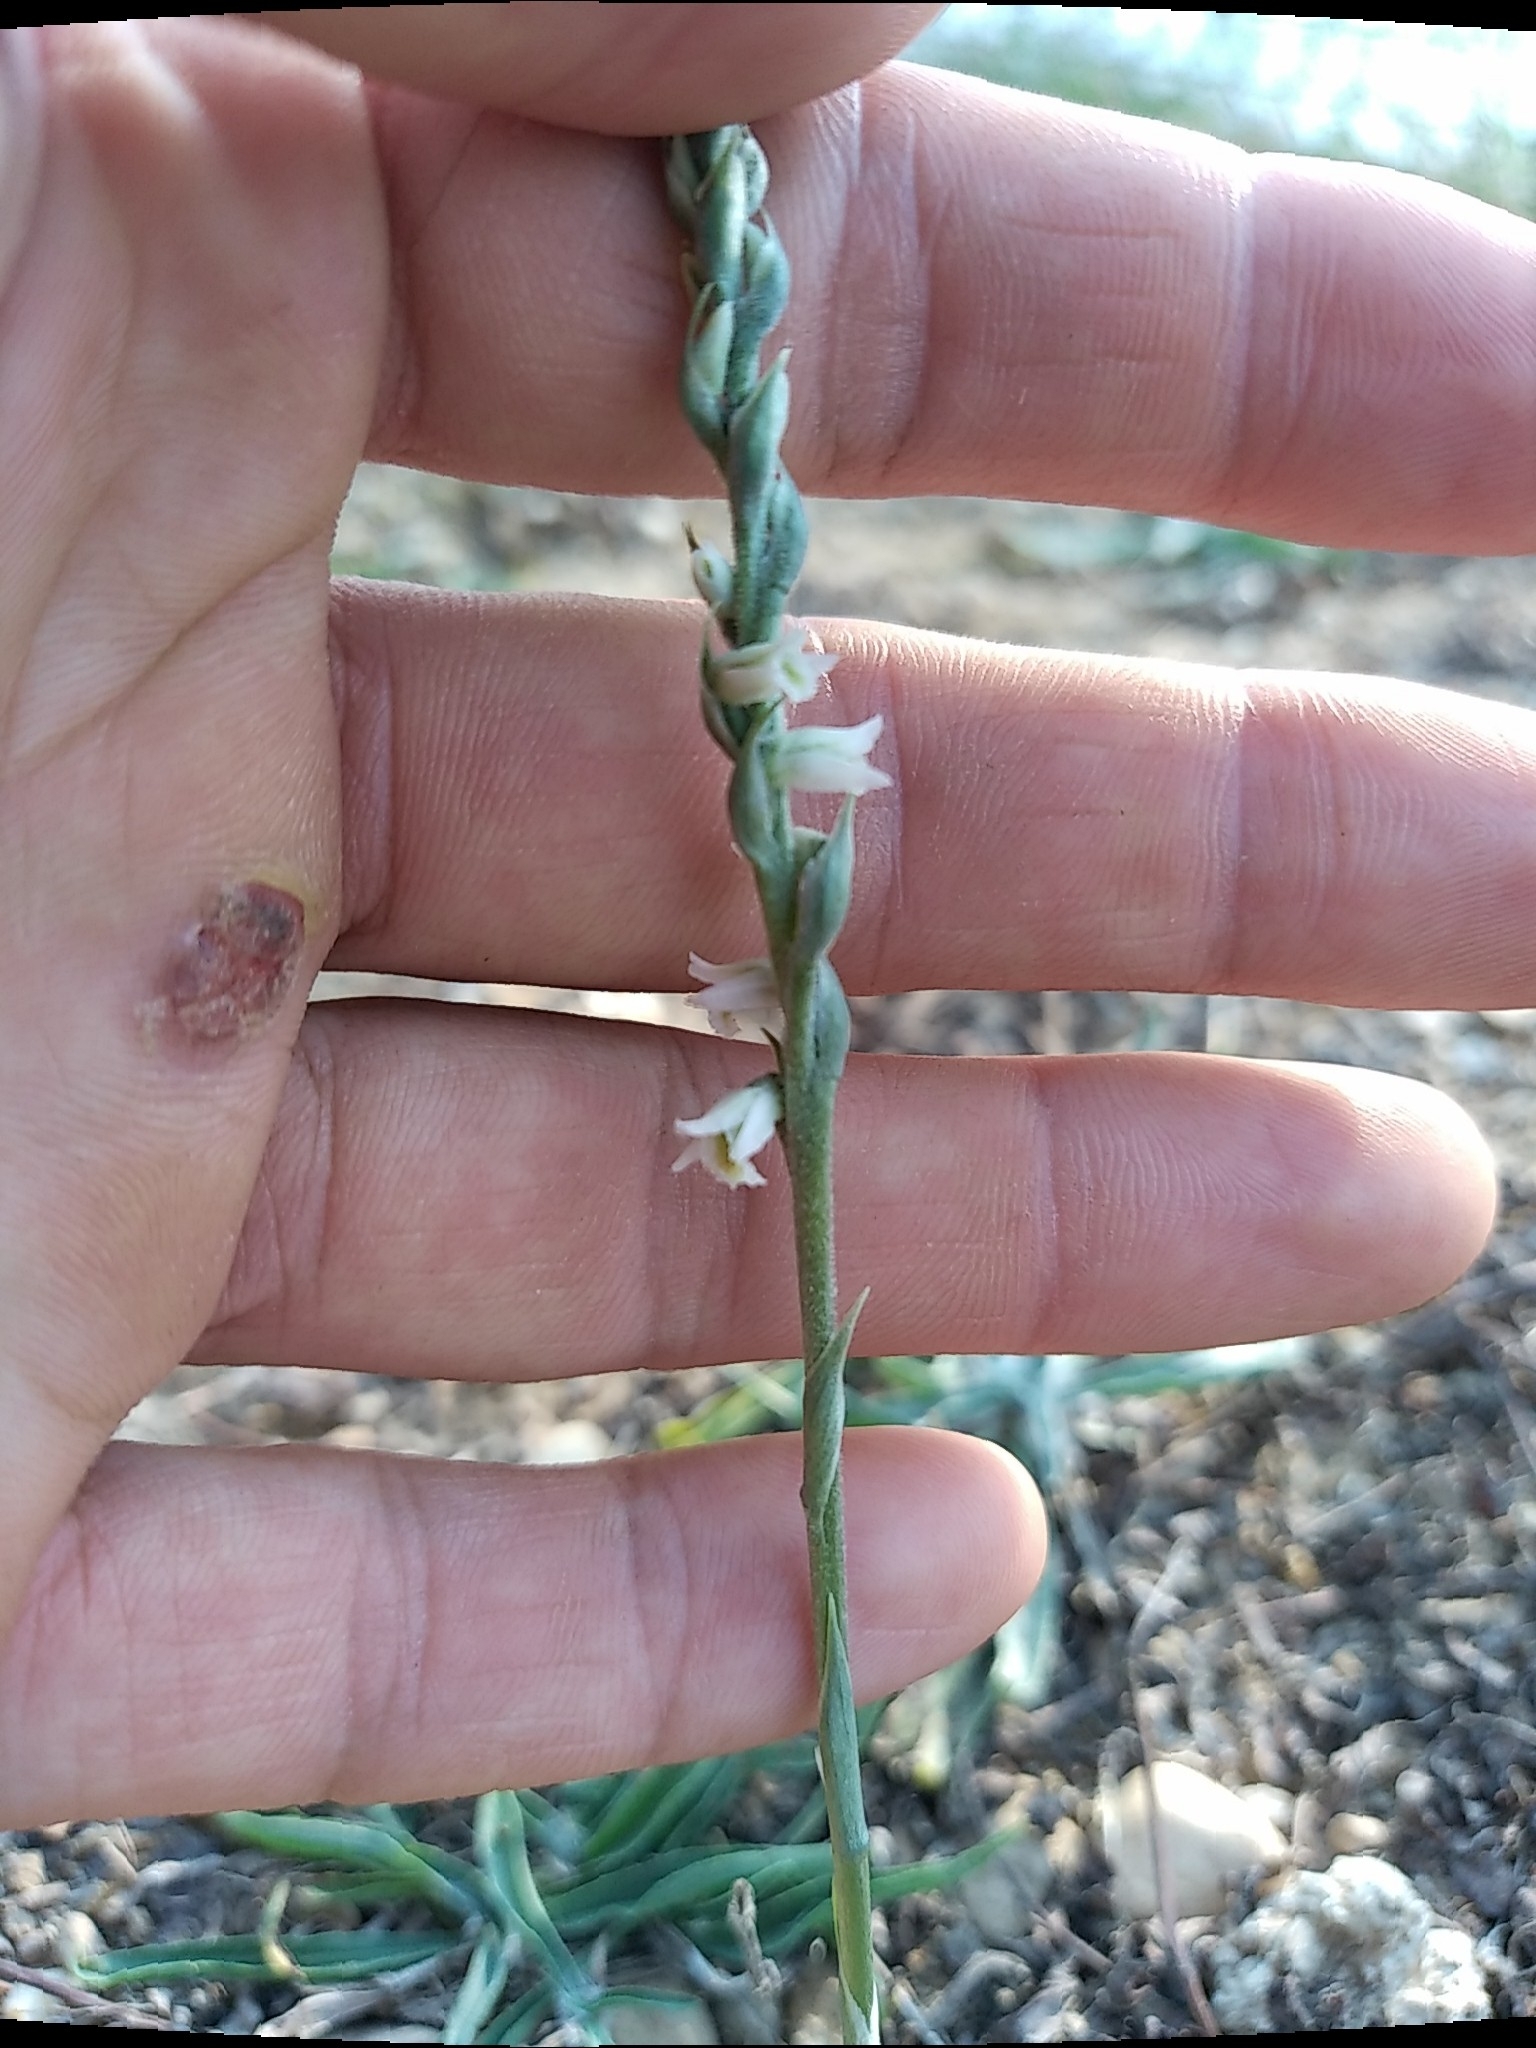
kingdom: Plantae
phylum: Tracheophyta
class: Liliopsida
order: Asparagales
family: Orchidaceae
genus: Spiranthes
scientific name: Spiranthes spiralis
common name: Autumn lady's-tresses
